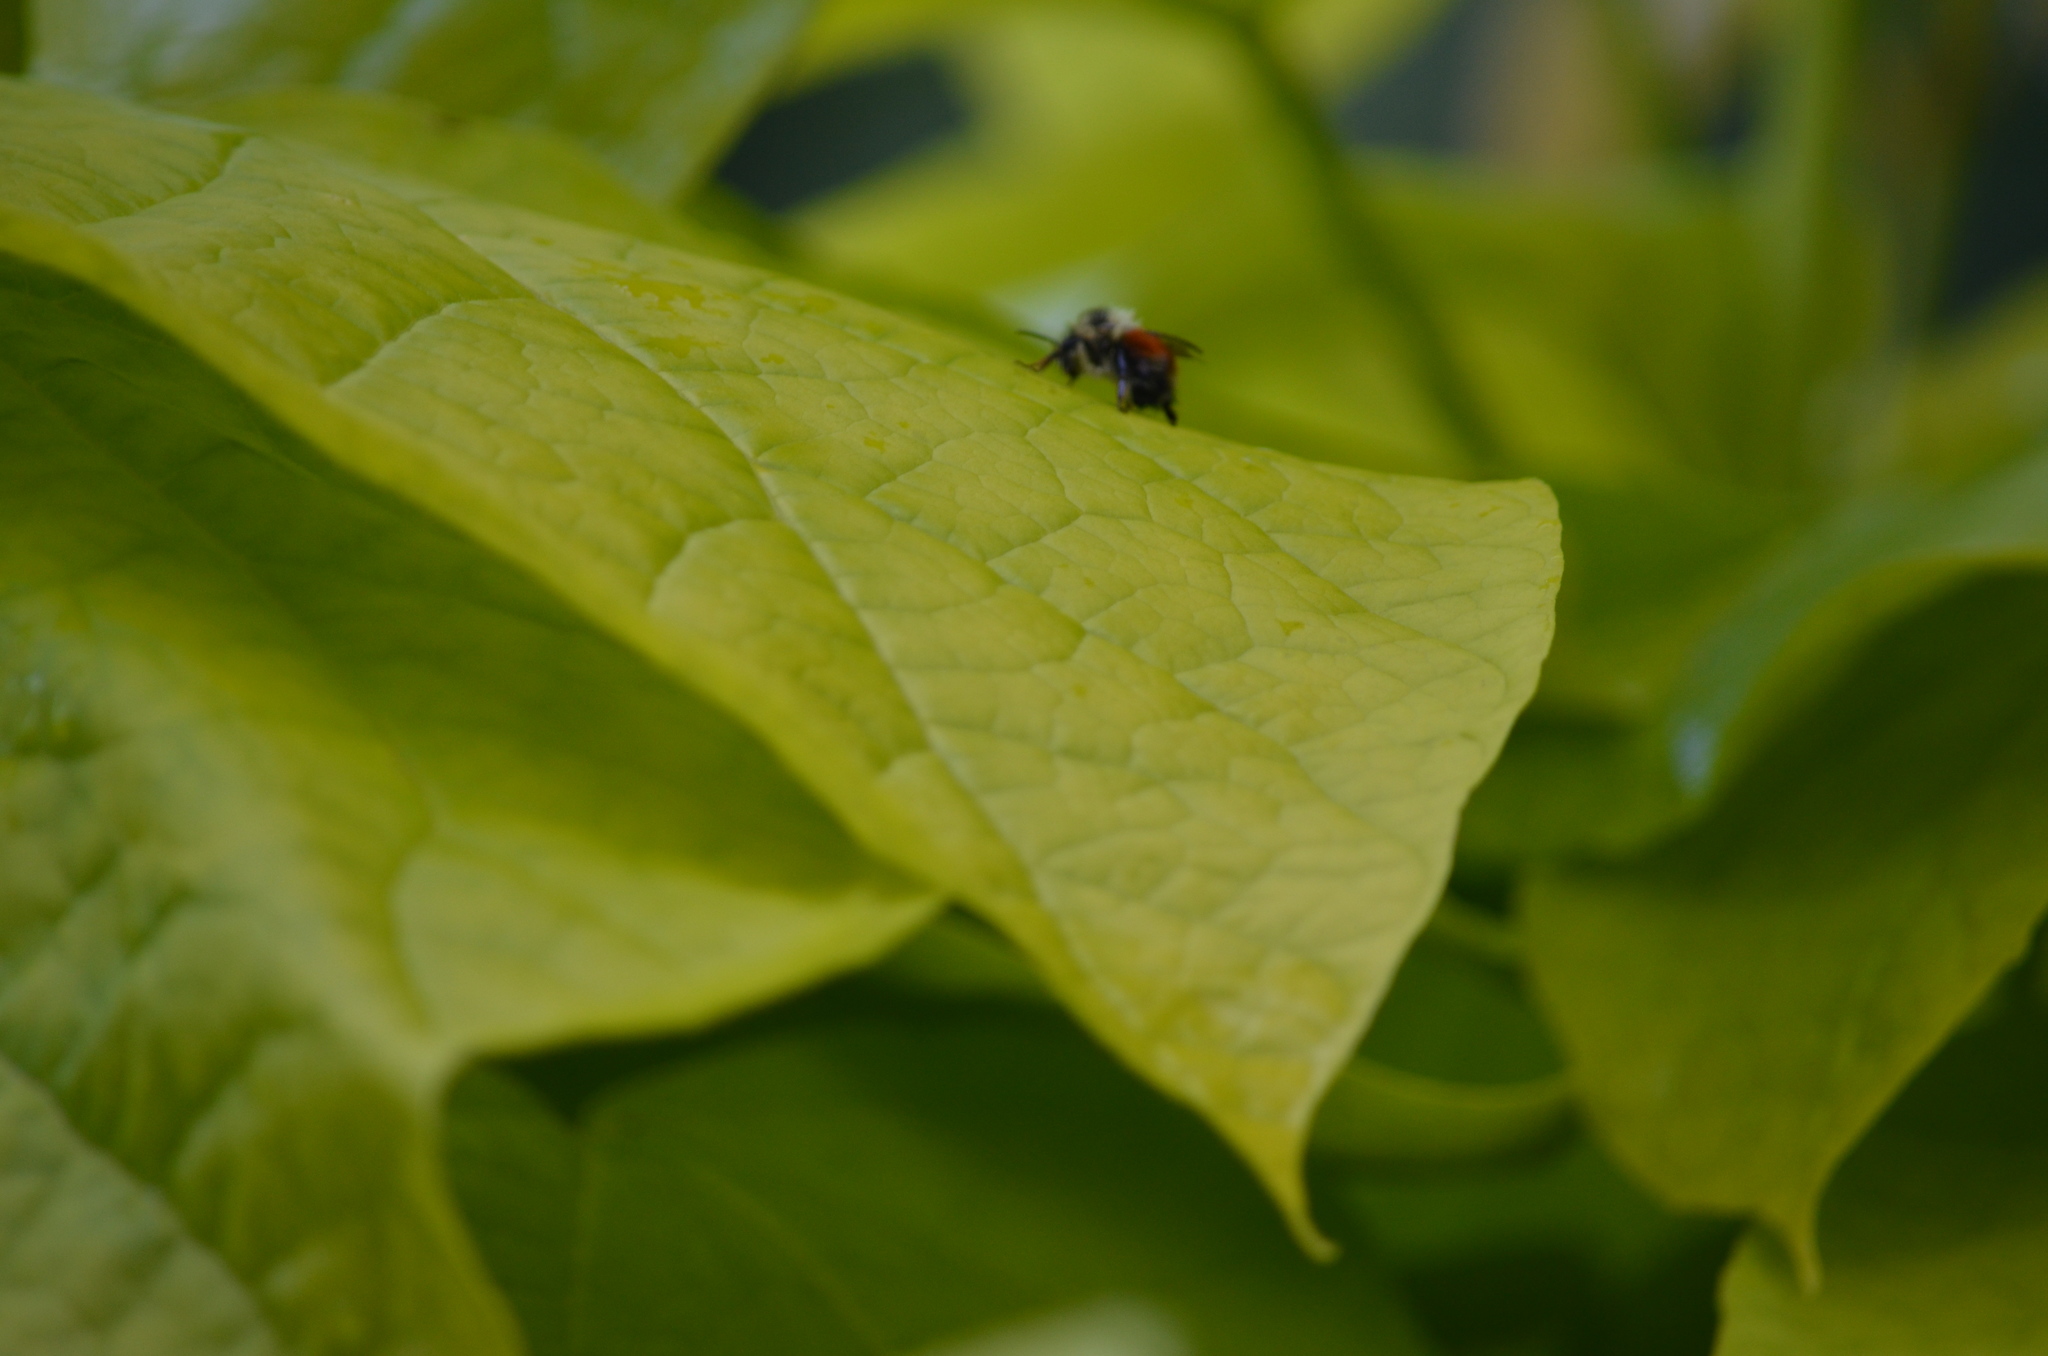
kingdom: Animalia
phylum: Arthropoda
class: Insecta
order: Hymenoptera
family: Apidae
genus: Bombus
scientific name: Bombus melanopygus
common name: Black tail bumble bee
